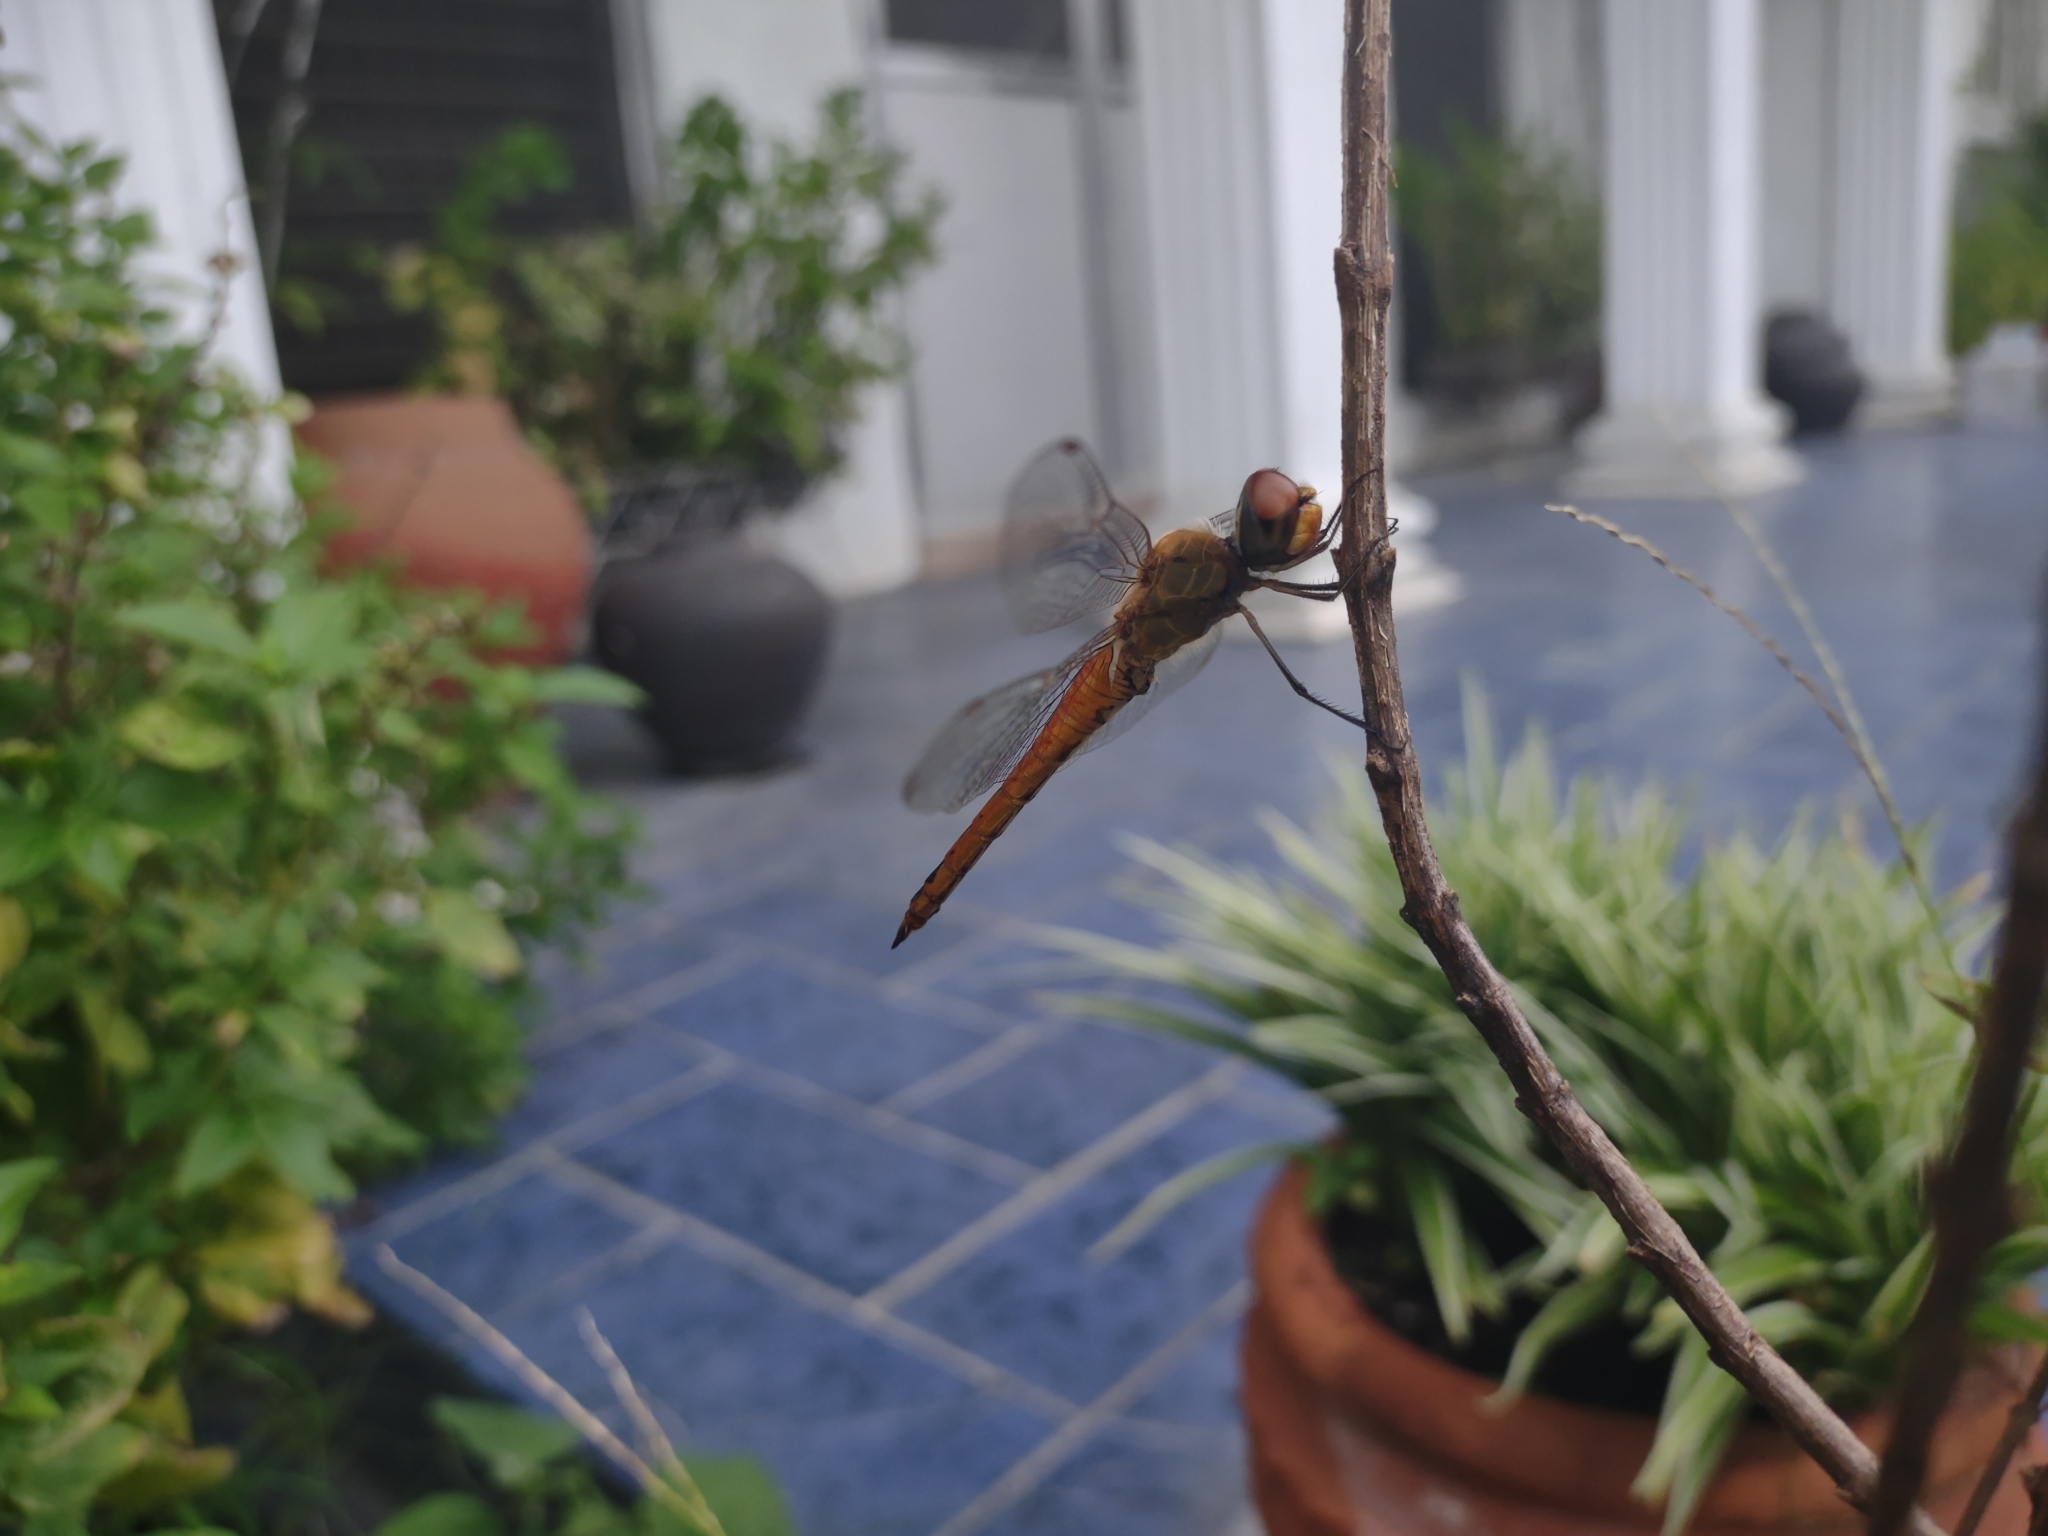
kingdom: Animalia
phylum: Arthropoda
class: Insecta
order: Odonata
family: Libellulidae
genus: Pantala
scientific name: Pantala flavescens
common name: Wandering glider
